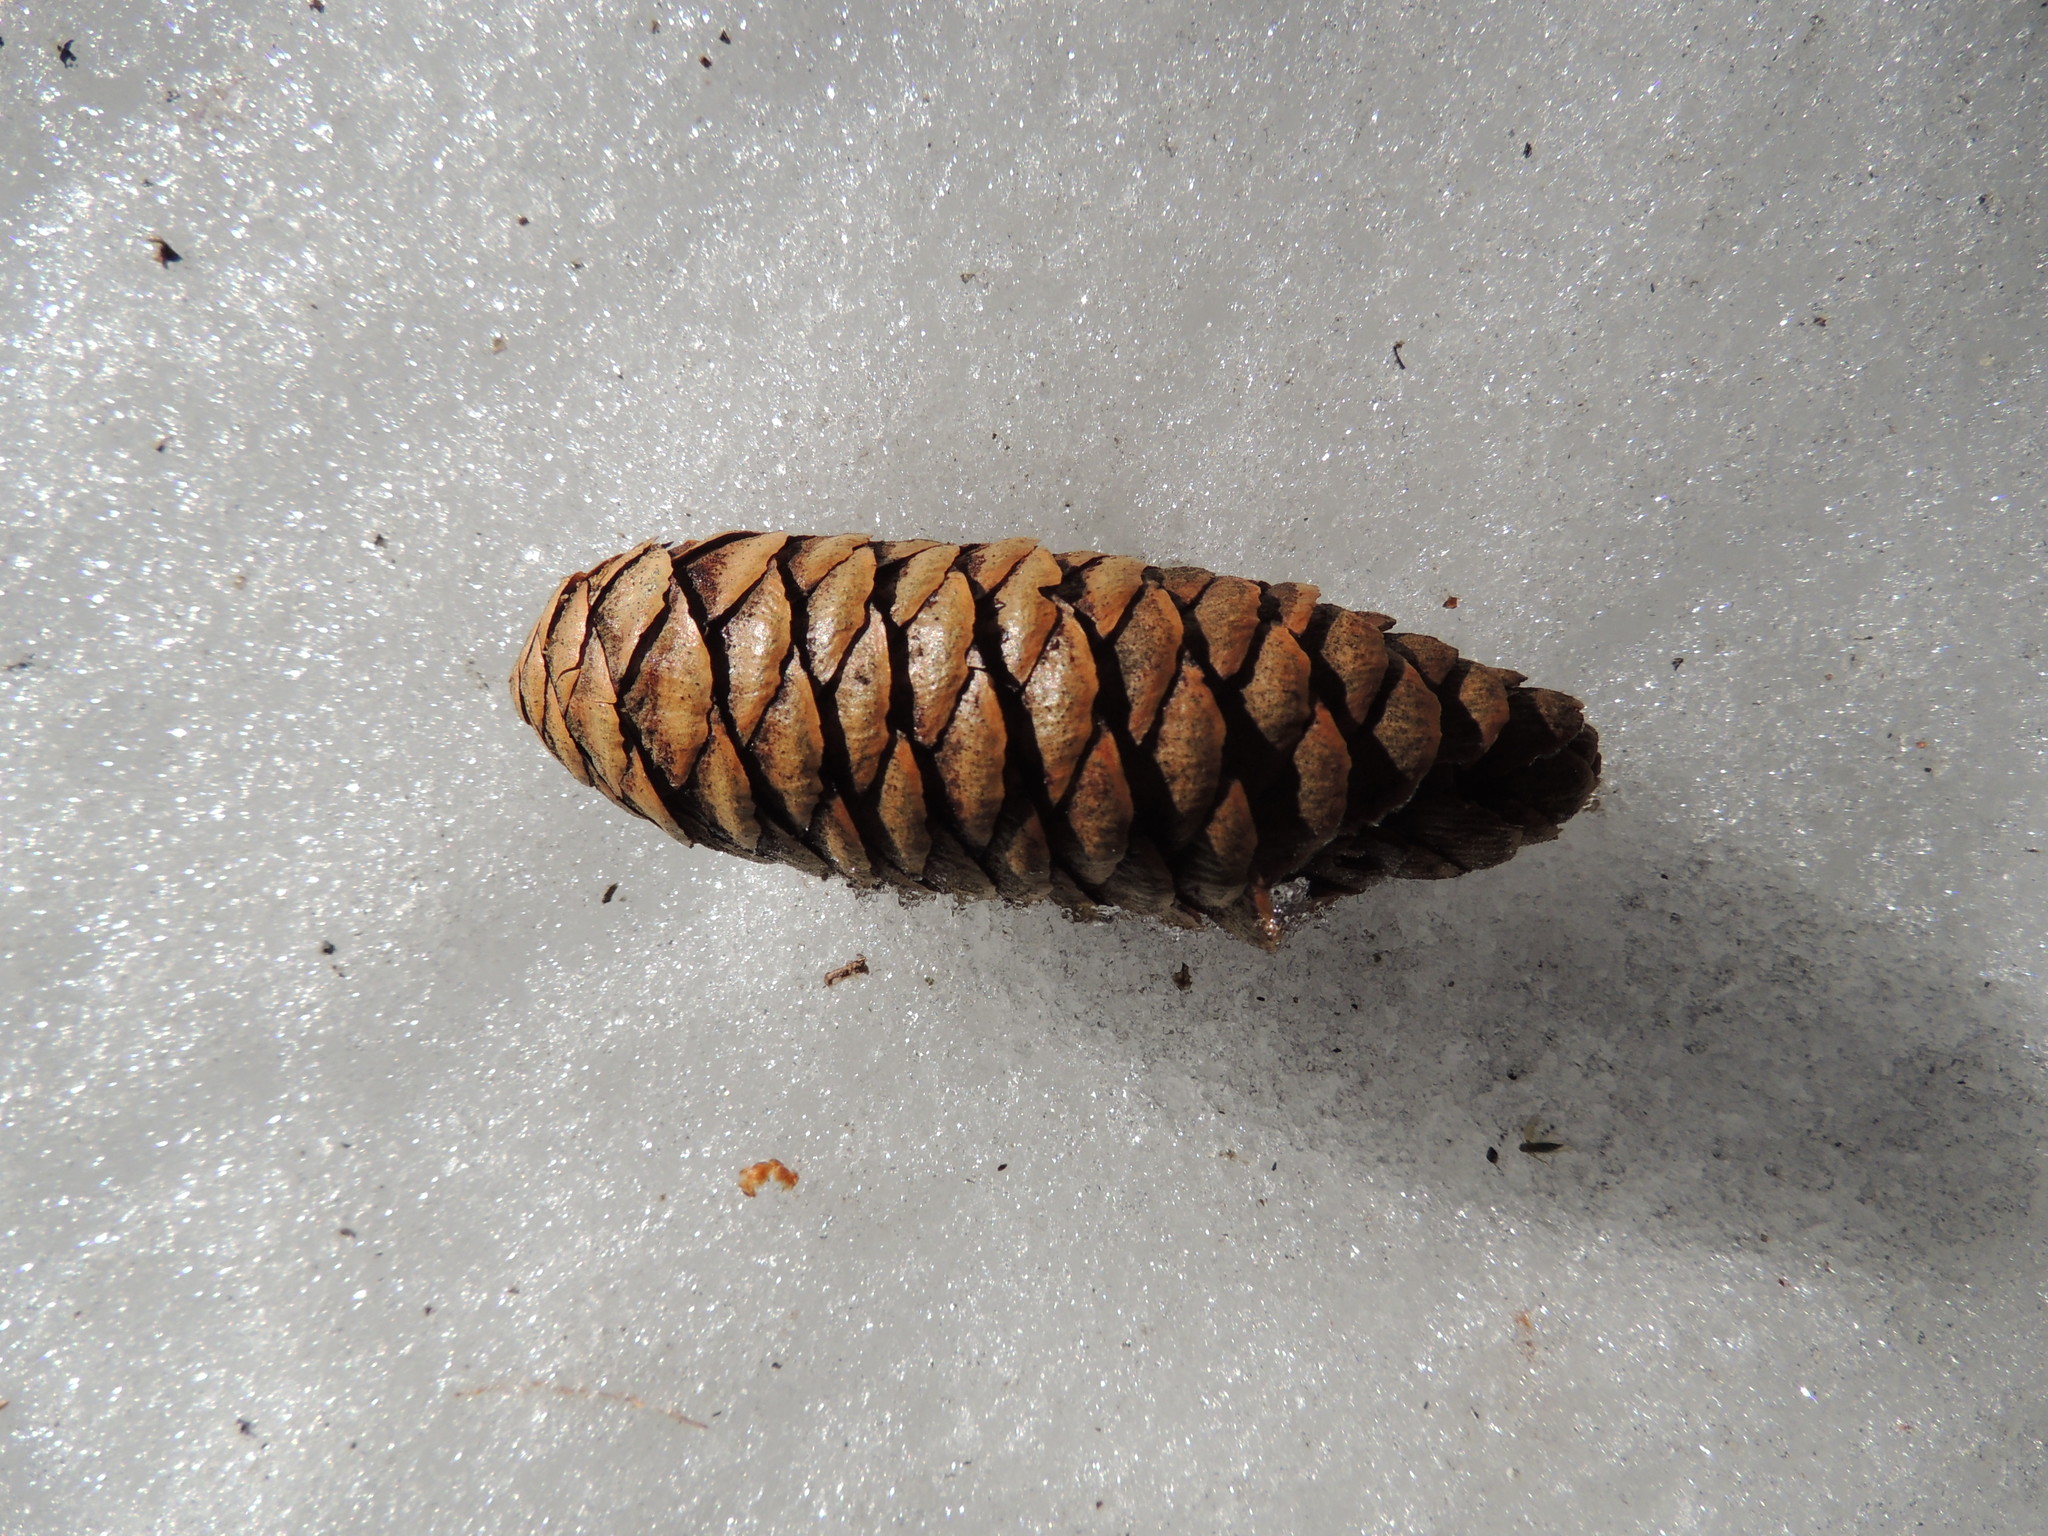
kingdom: Plantae
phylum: Tracheophyta
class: Pinopsida
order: Pinales
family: Pinaceae
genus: Picea
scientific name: Picea obovata
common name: Siberian spruce
